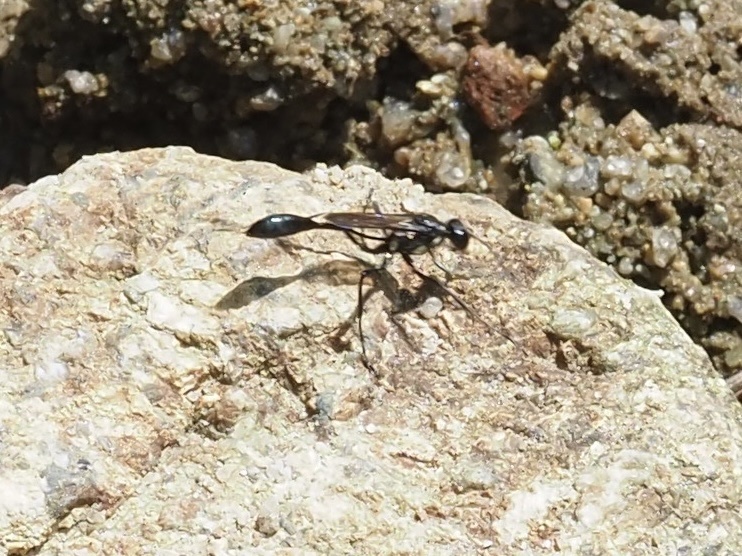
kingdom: Animalia
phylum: Arthropoda
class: Insecta
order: Hymenoptera
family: Sphecidae
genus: Eremnophila
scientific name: Eremnophila aureonotata
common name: Gold-marked thread-waisted wasp
